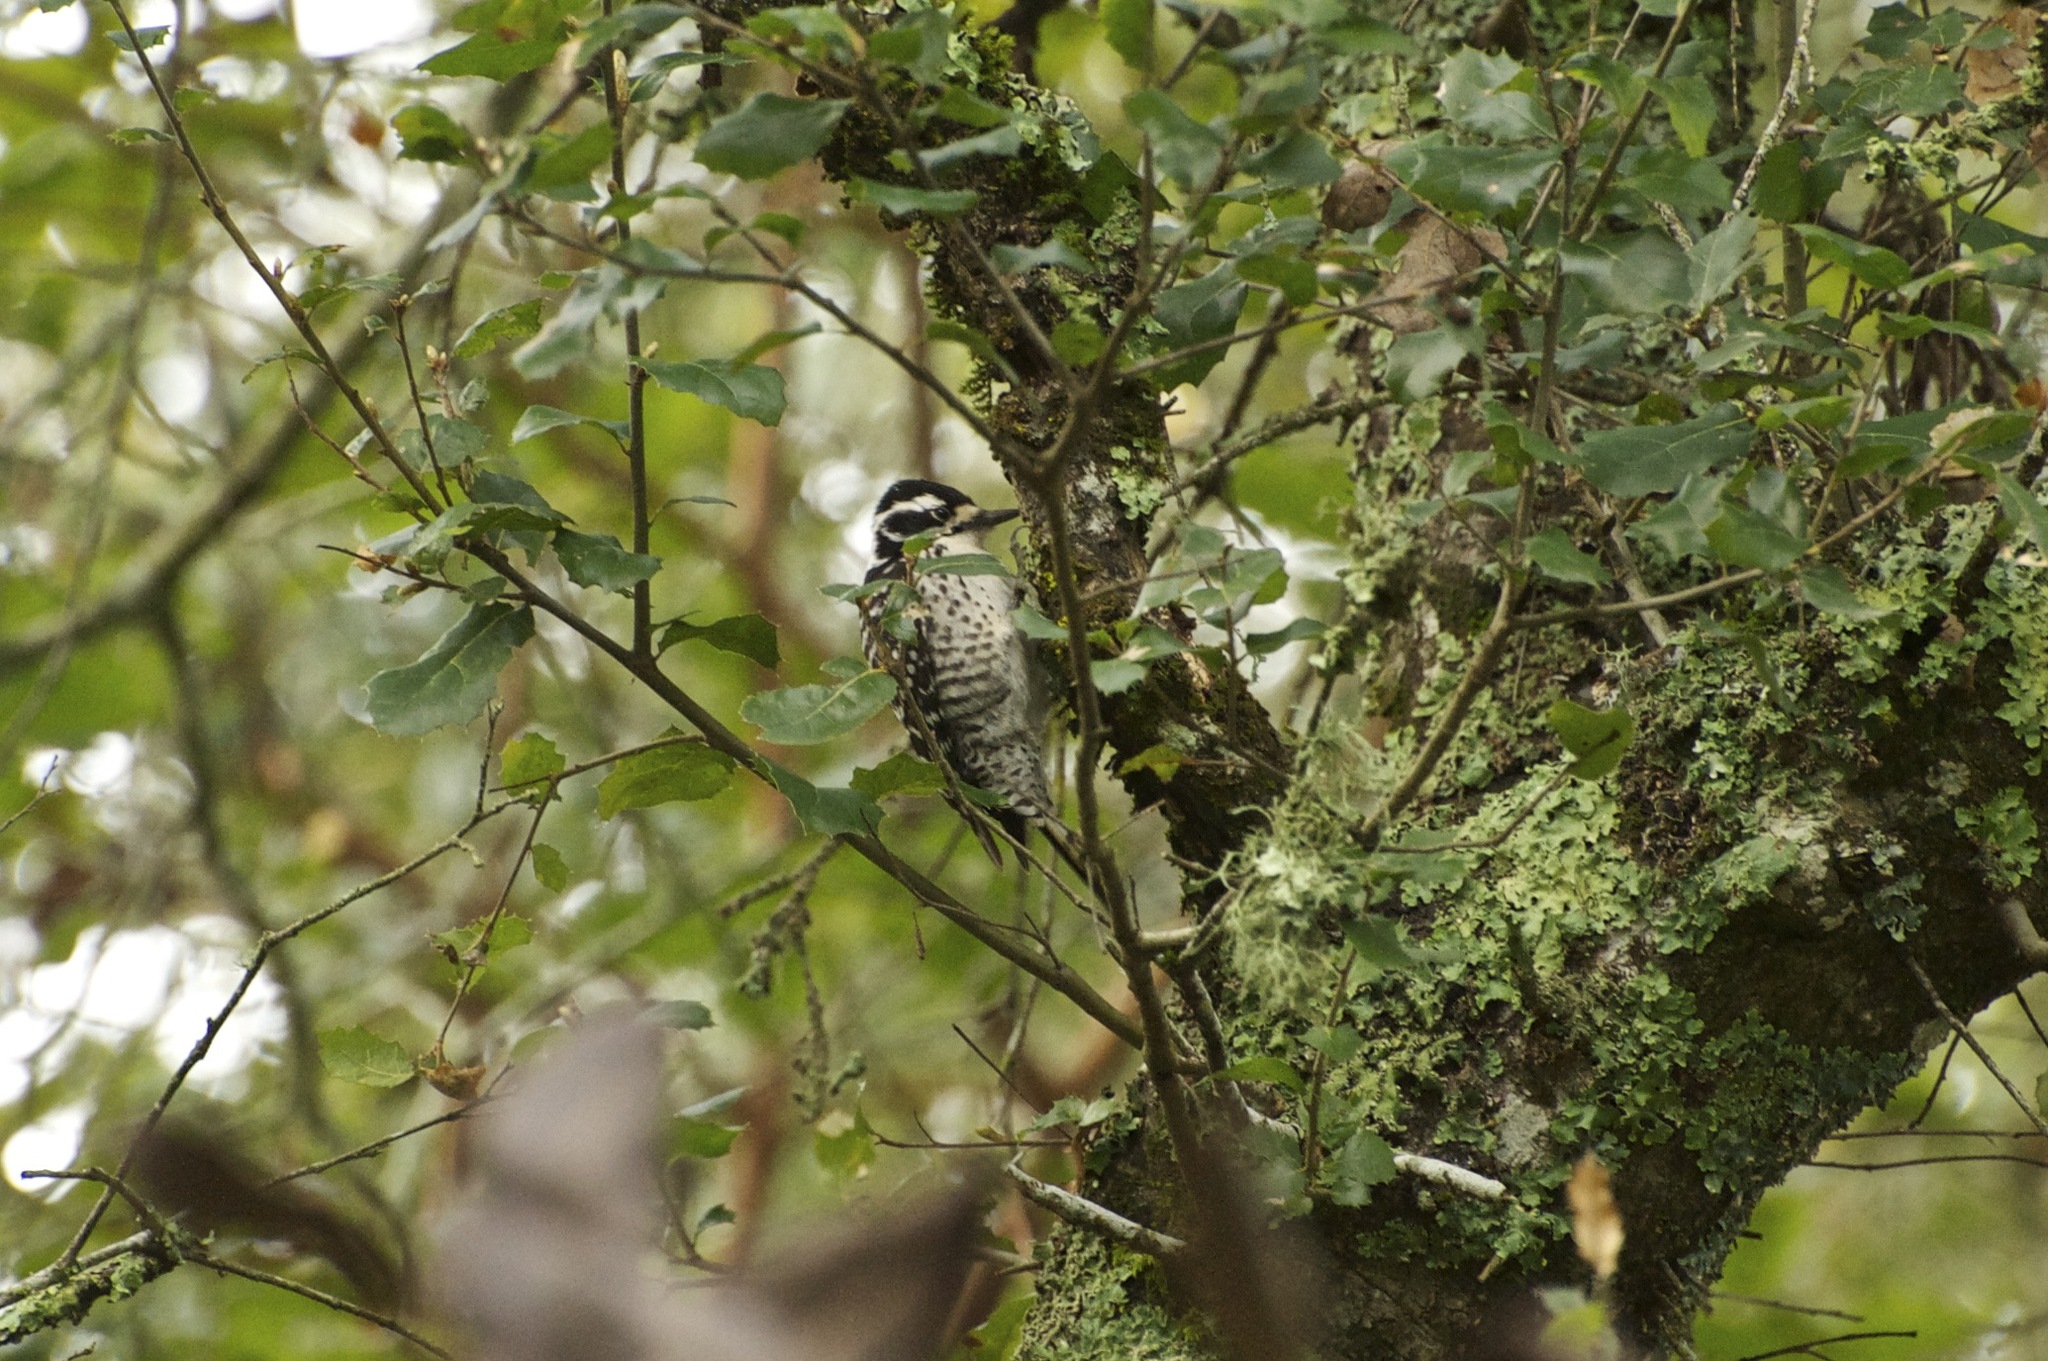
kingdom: Animalia
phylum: Chordata
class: Aves
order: Piciformes
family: Picidae
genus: Dryobates
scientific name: Dryobates nuttallii
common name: Nuttall's woodpecker
